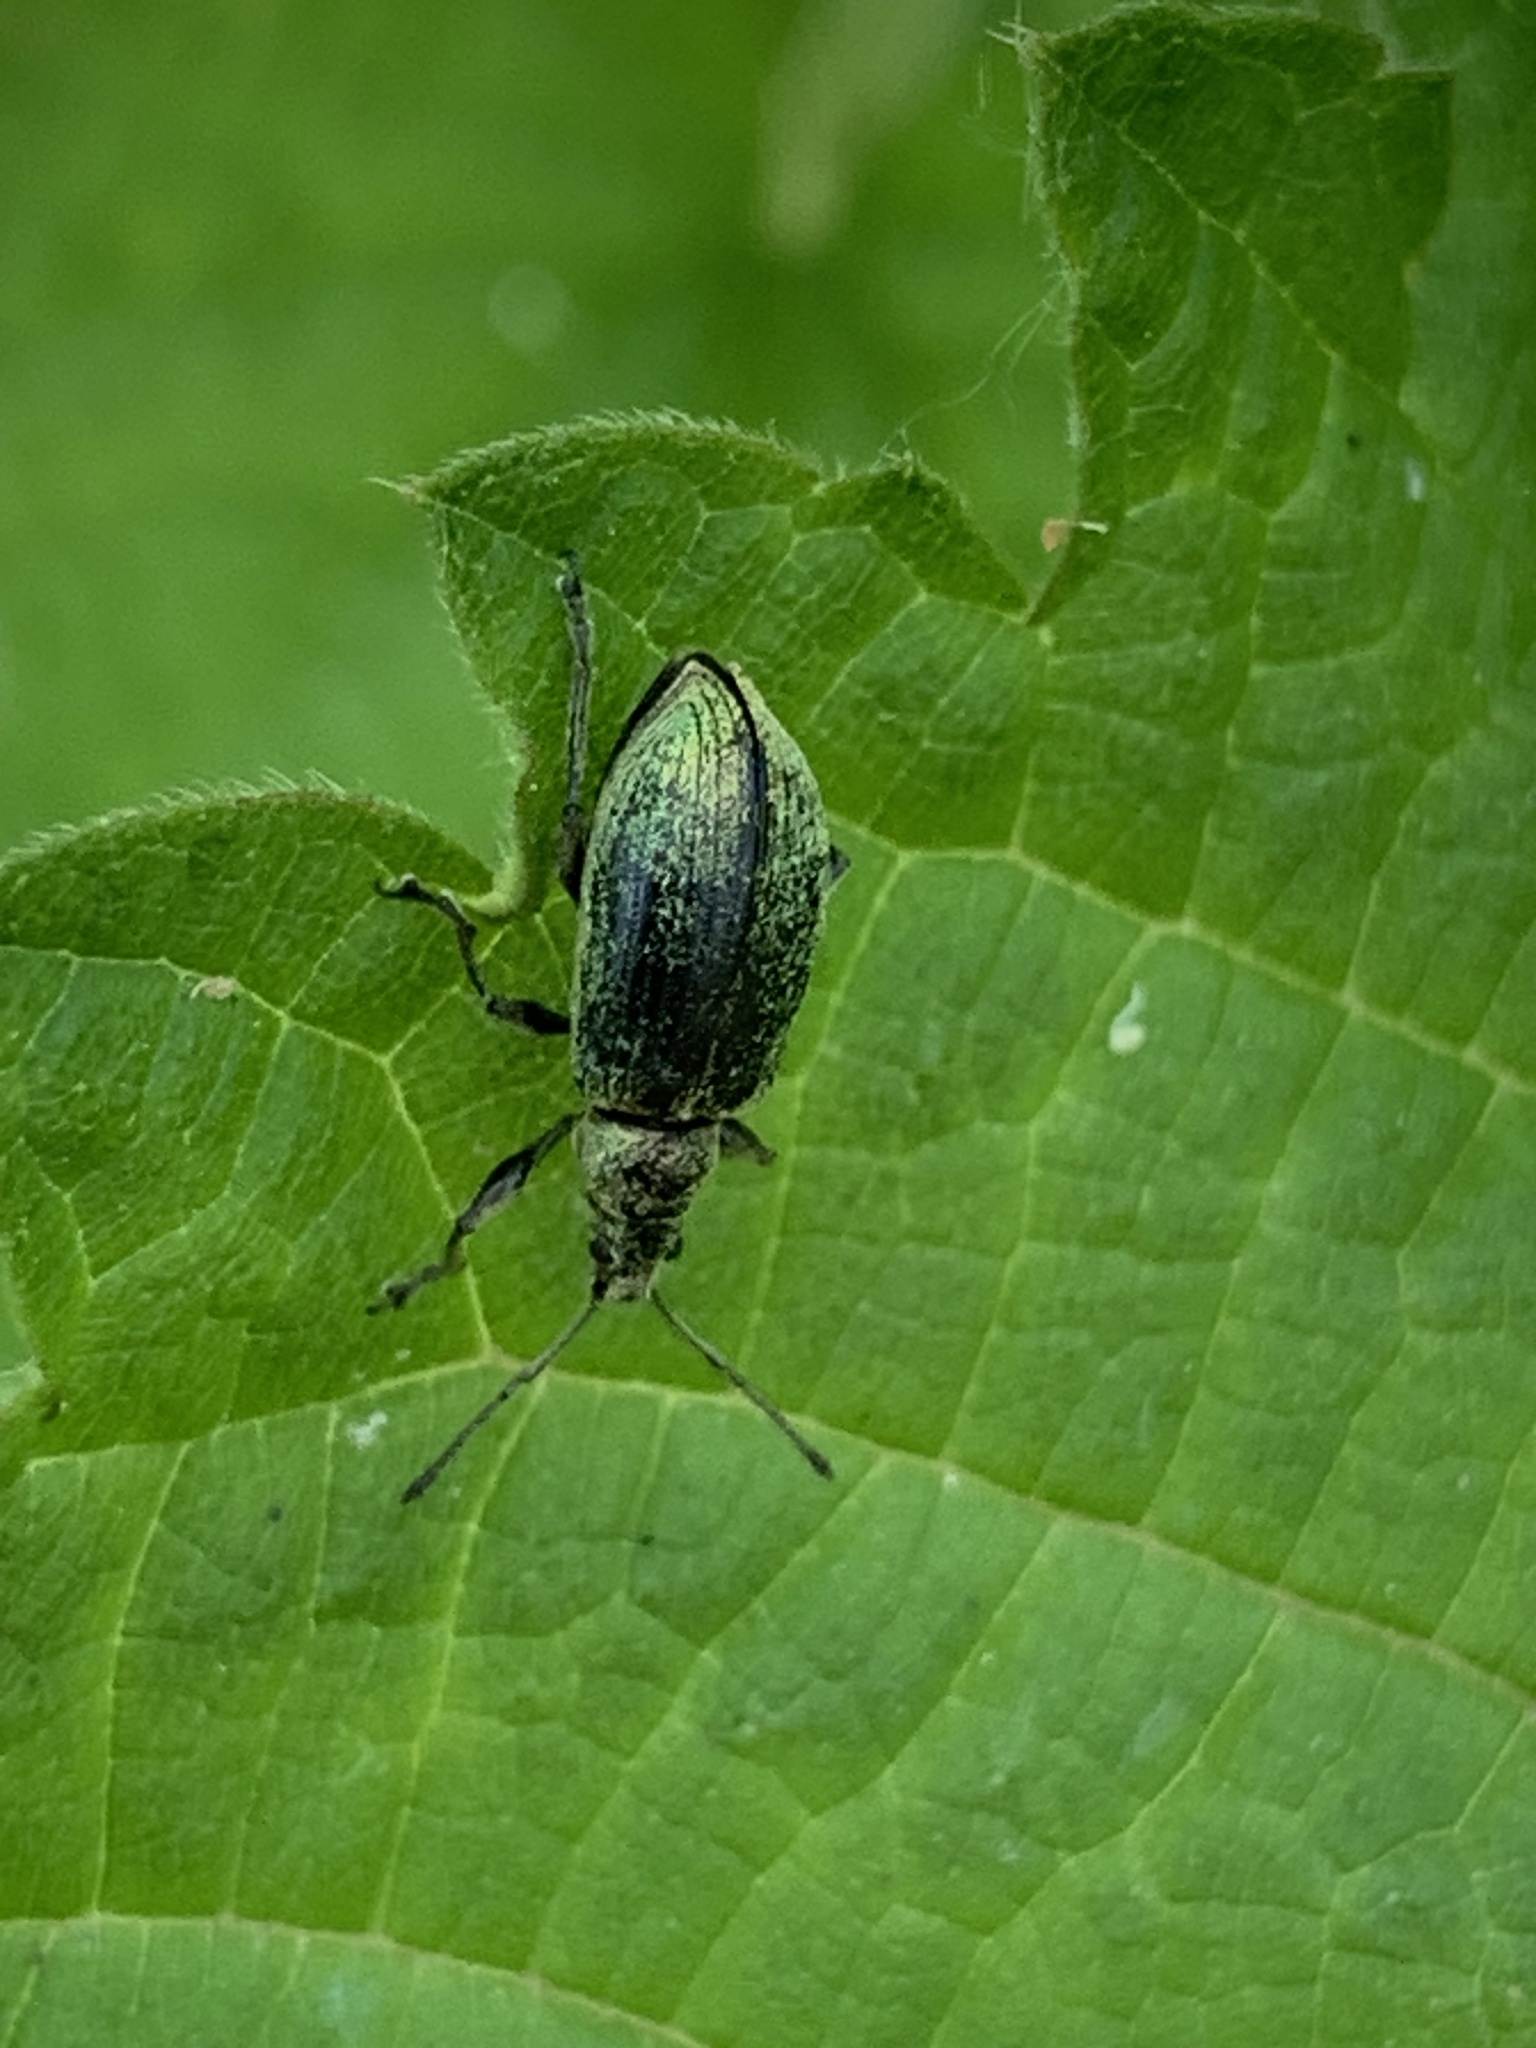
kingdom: Animalia
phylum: Arthropoda
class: Insecta
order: Coleoptera
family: Curculionidae
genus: Phyllobius
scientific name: Phyllobius pomaceus
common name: Green nettle weevil
